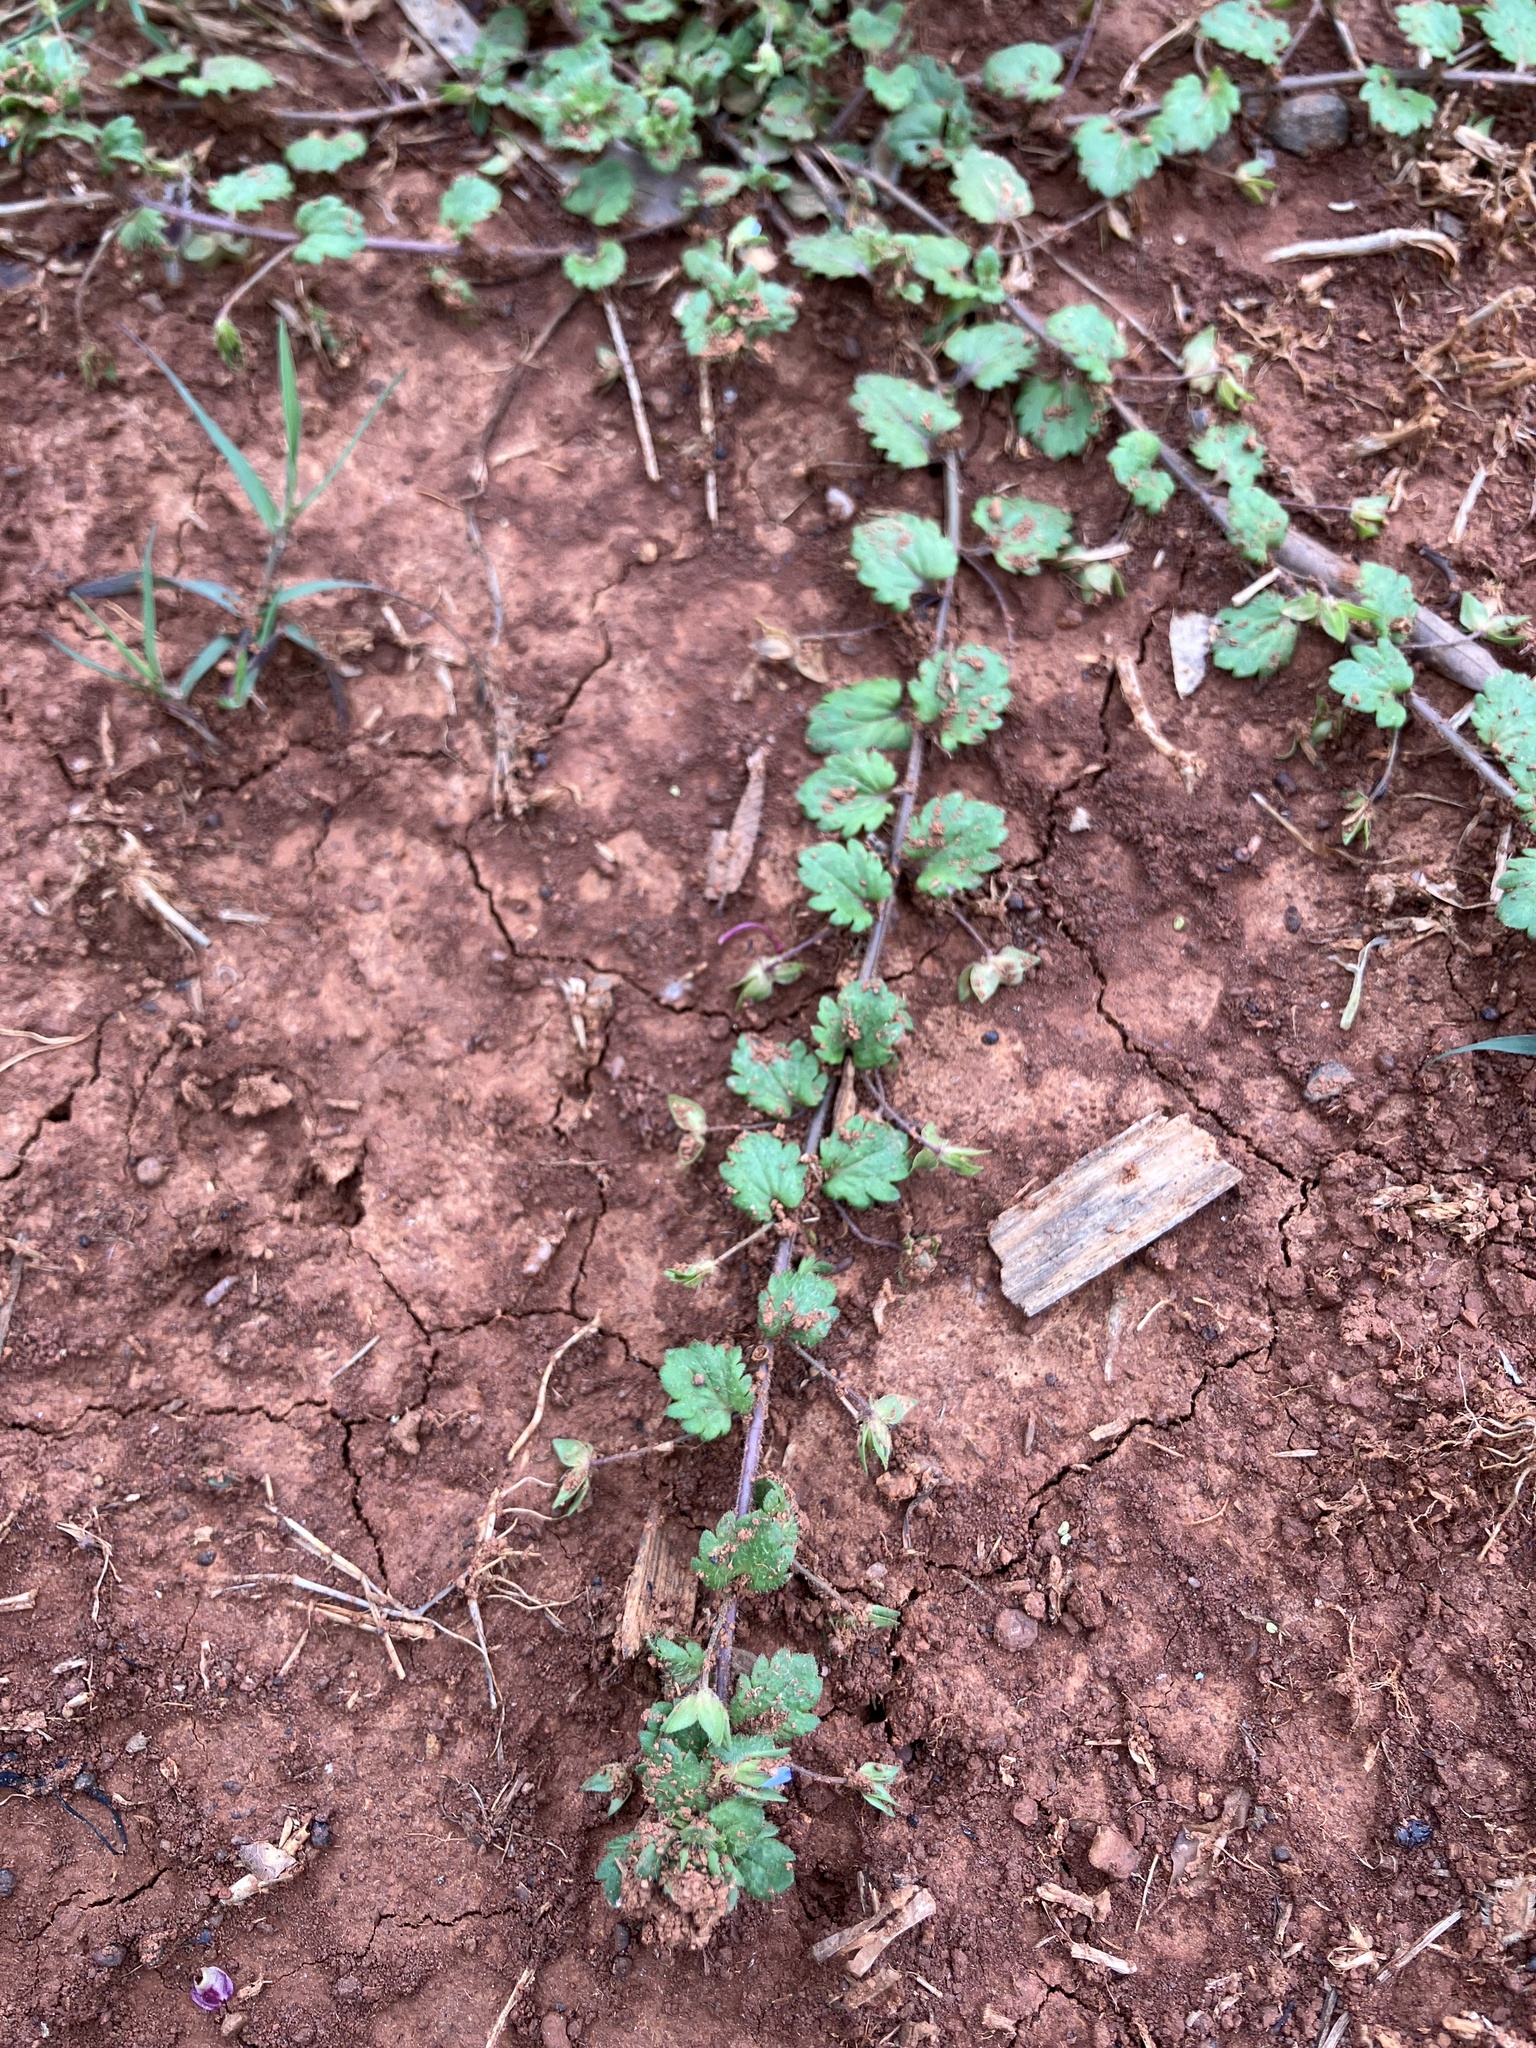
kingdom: Plantae
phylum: Tracheophyta
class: Magnoliopsida
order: Lamiales
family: Plantaginaceae
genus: Veronica
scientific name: Veronica persica
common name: Common field-speedwell
